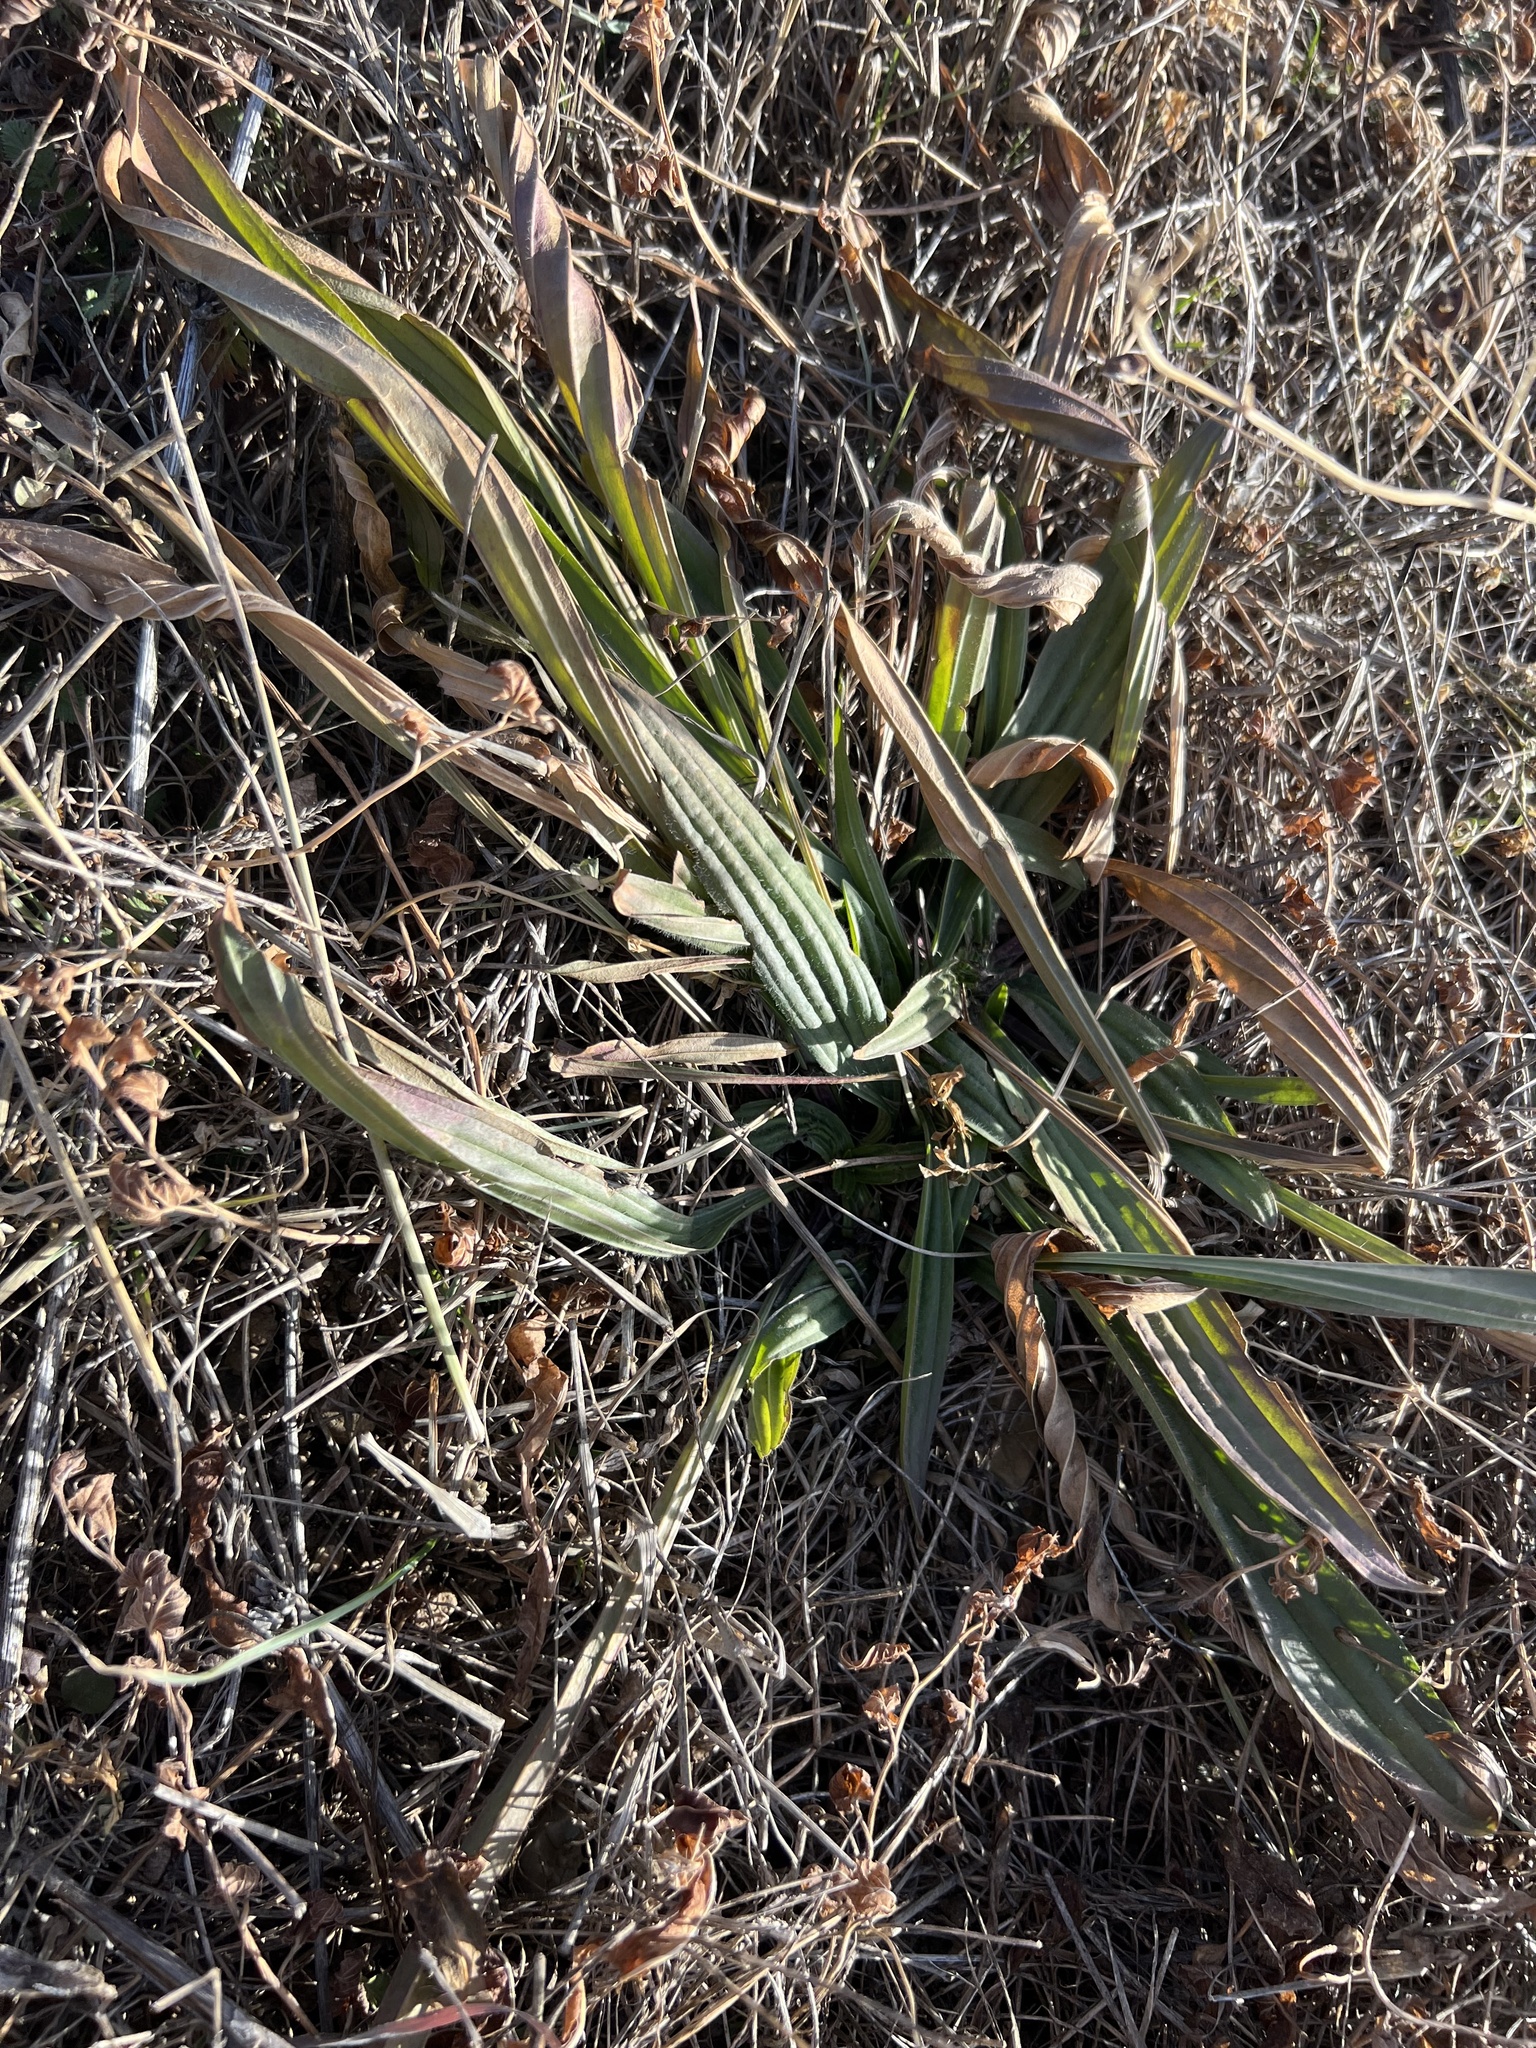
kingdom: Plantae
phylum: Tracheophyta
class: Magnoliopsida
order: Lamiales
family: Plantaginaceae
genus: Plantago
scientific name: Plantago lanceolata
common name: Ribwort plantain
